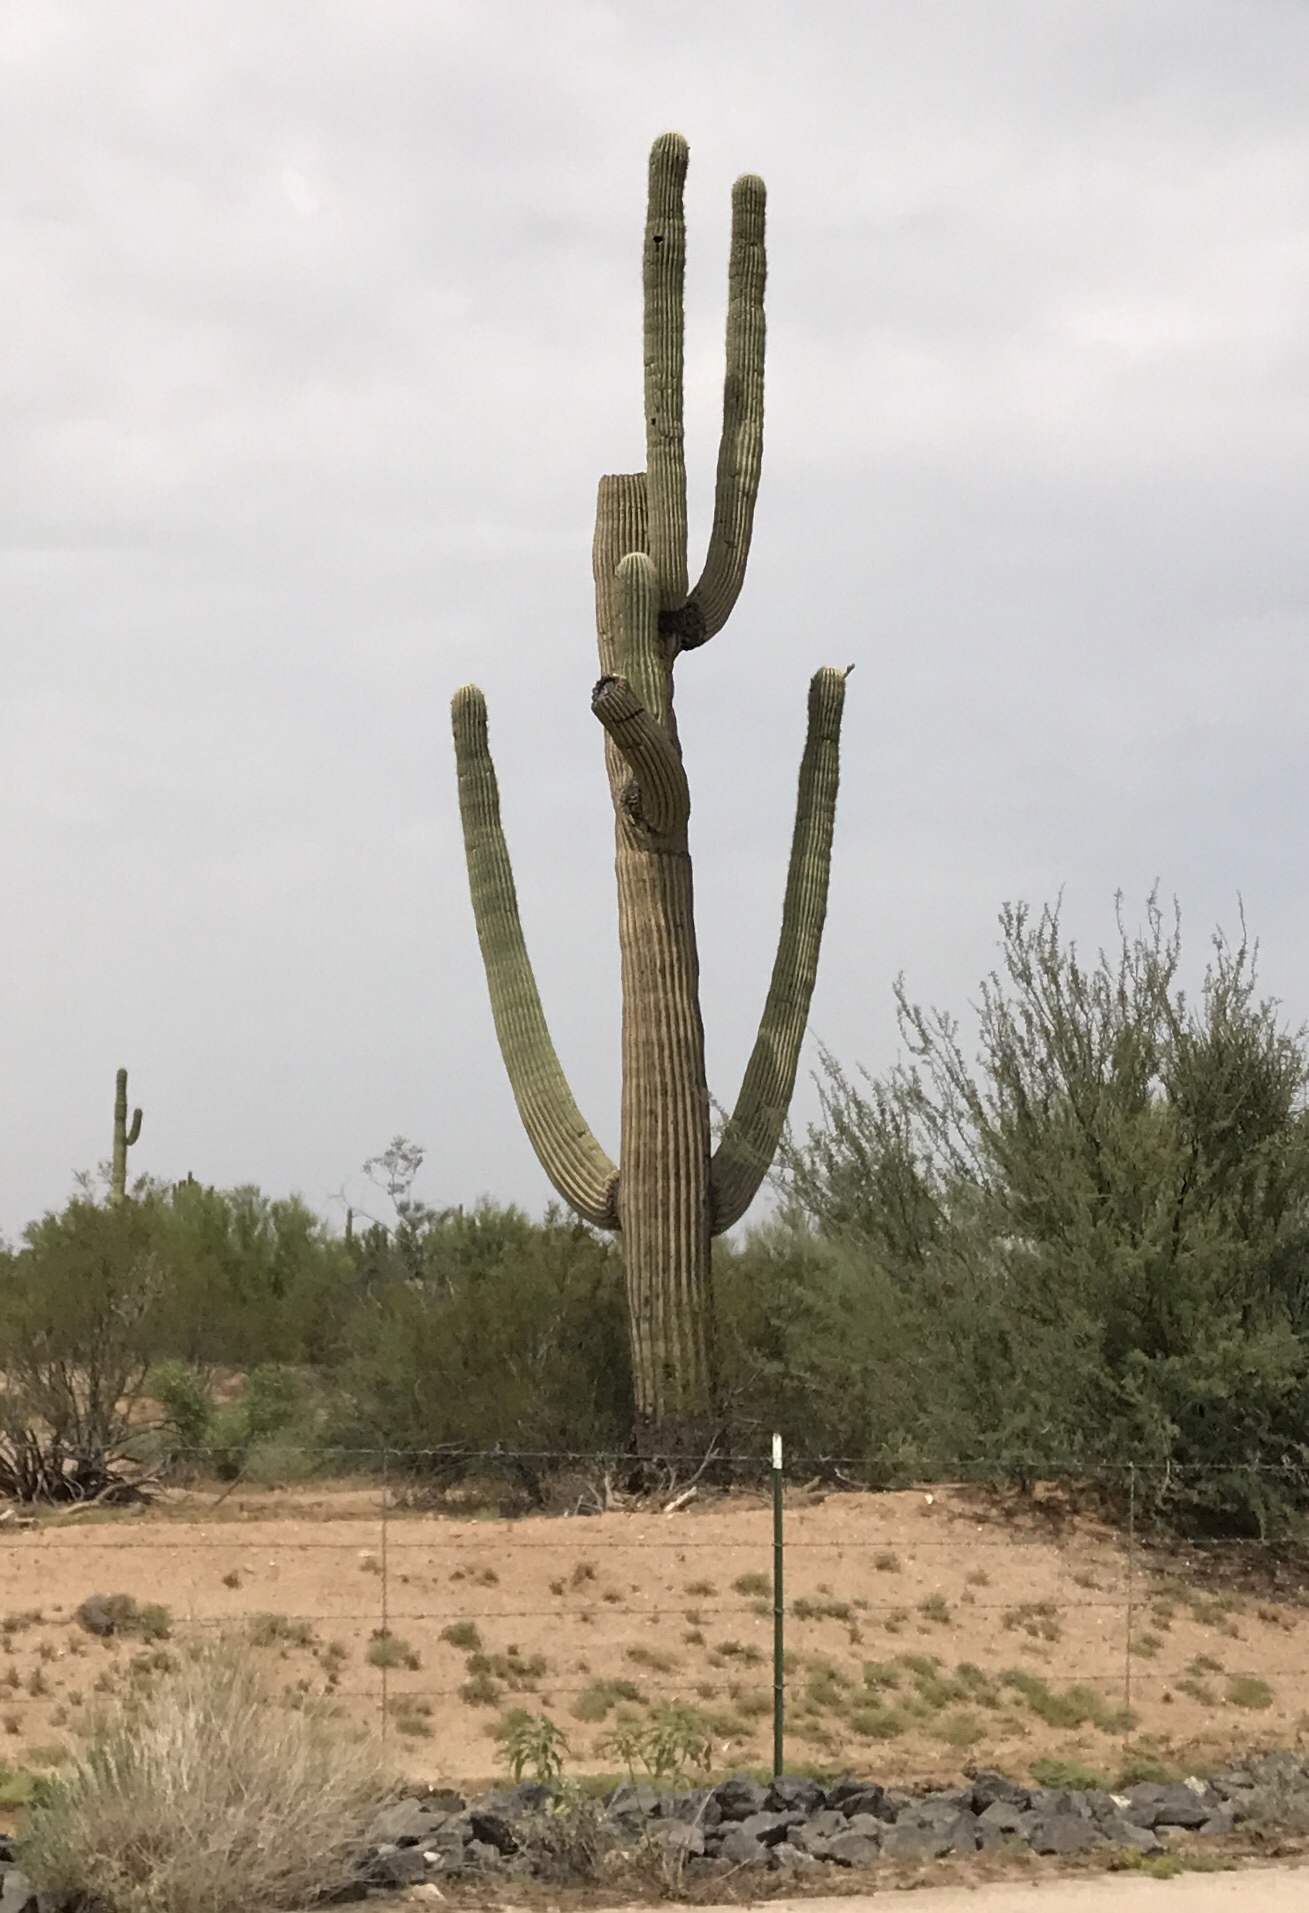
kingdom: Plantae
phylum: Tracheophyta
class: Magnoliopsida
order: Caryophyllales
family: Cactaceae
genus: Carnegiea
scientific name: Carnegiea gigantea
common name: Saguaro
